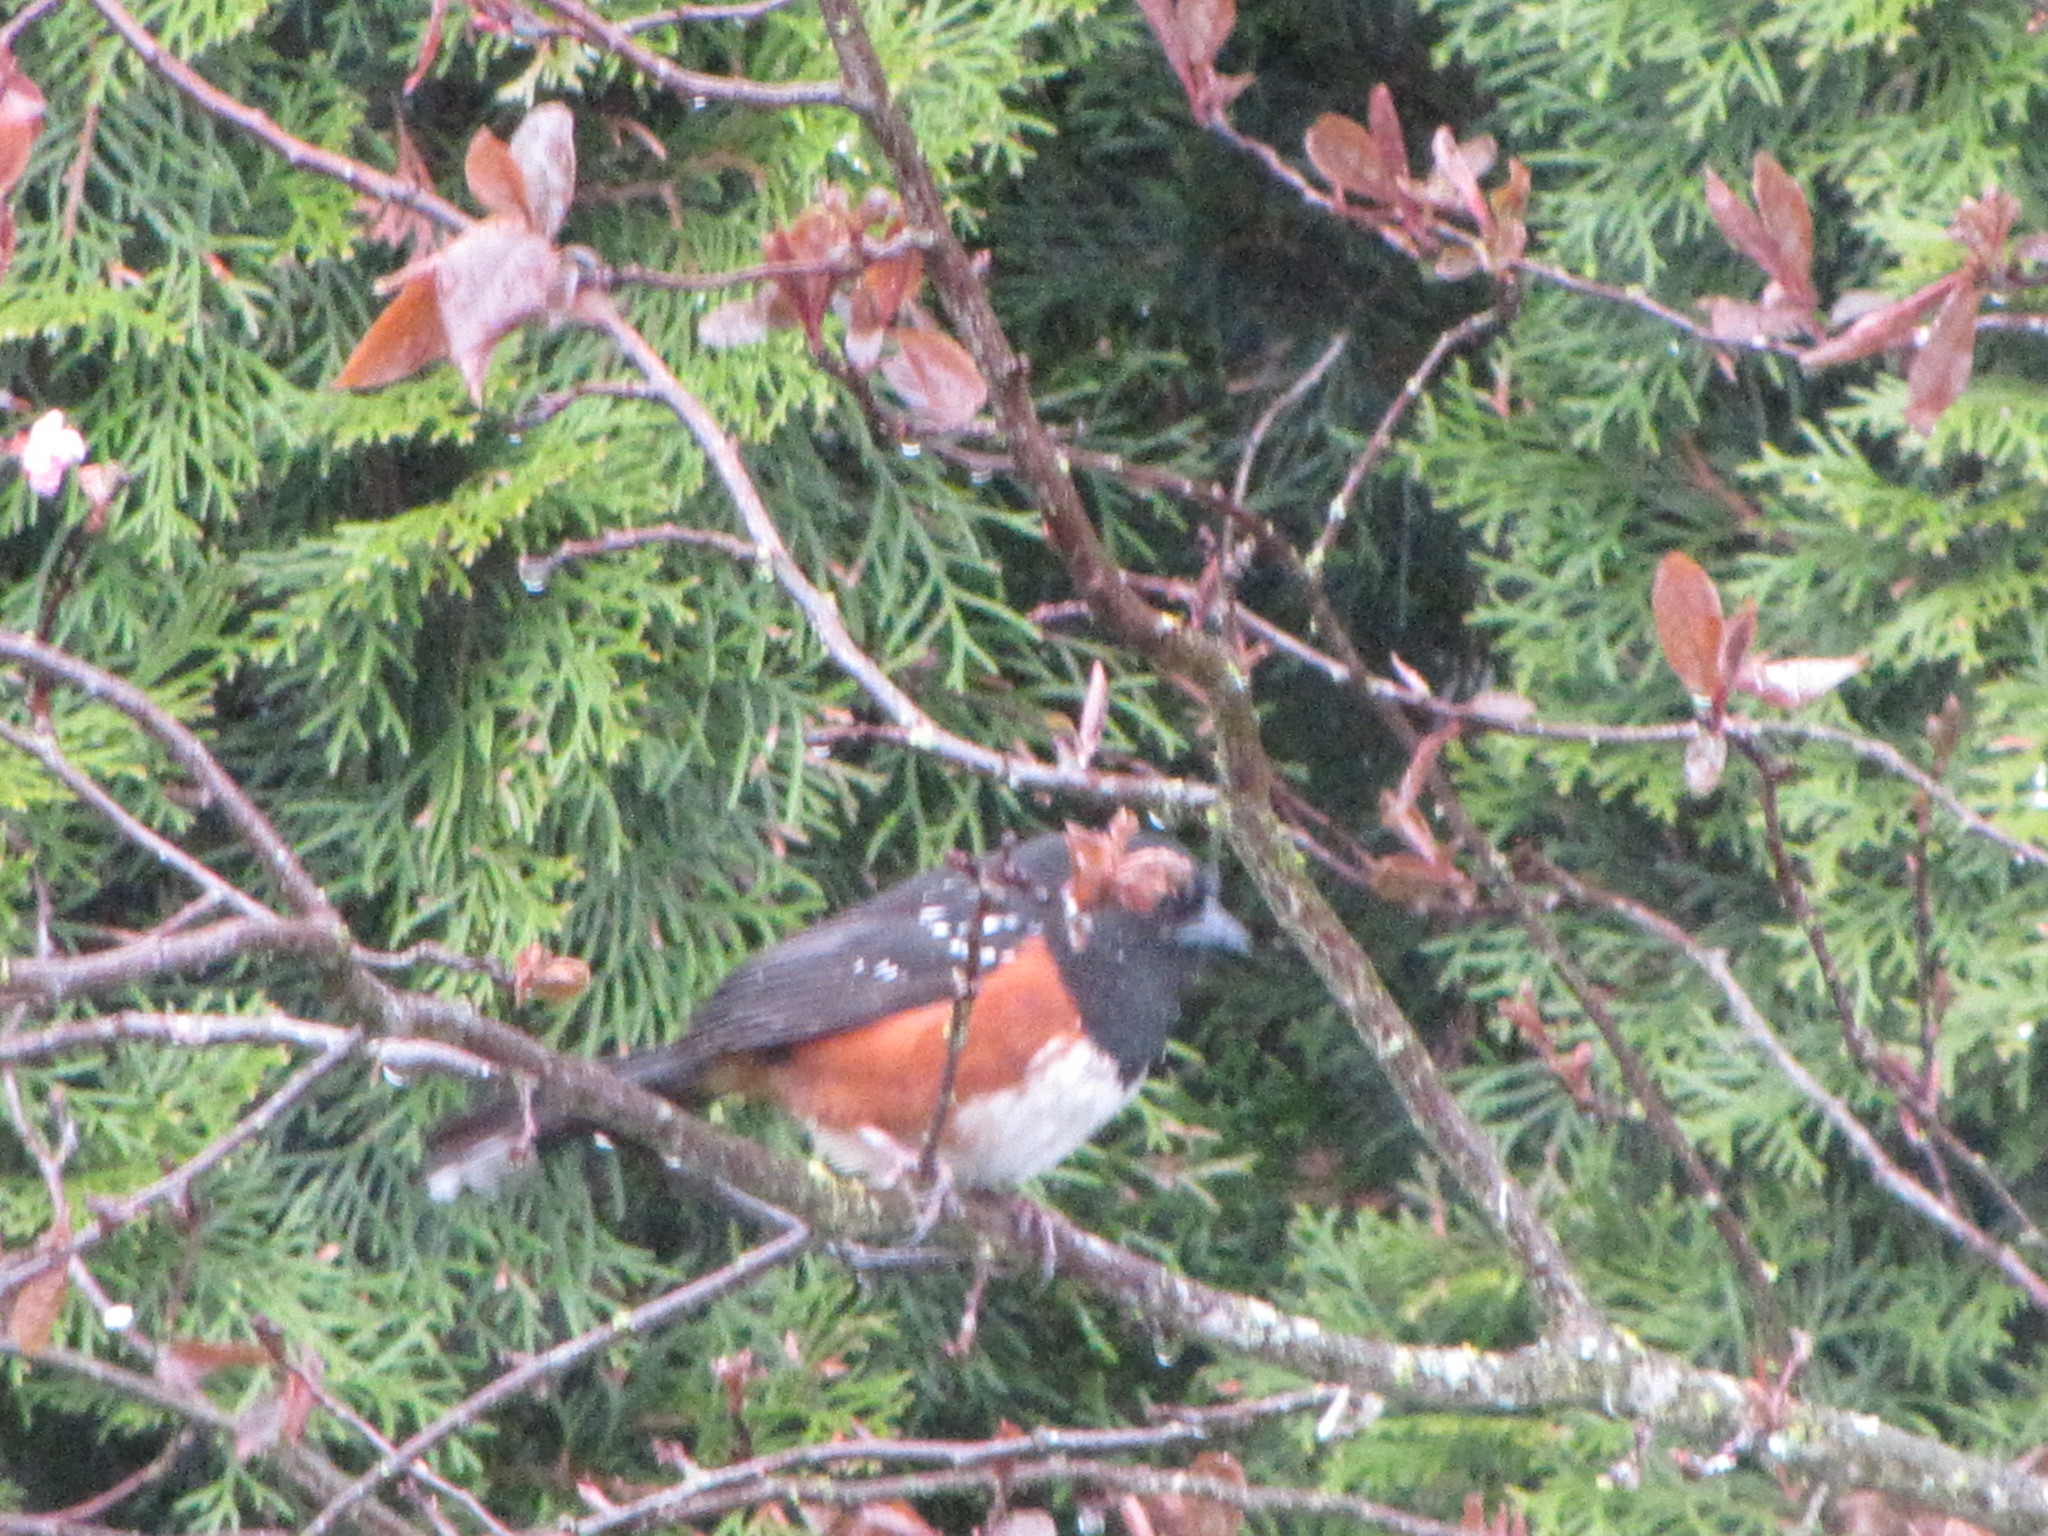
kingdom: Animalia
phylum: Chordata
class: Aves
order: Passeriformes
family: Passerellidae
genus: Pipilo
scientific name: Pipilo maculatus
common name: Spotted towhee
